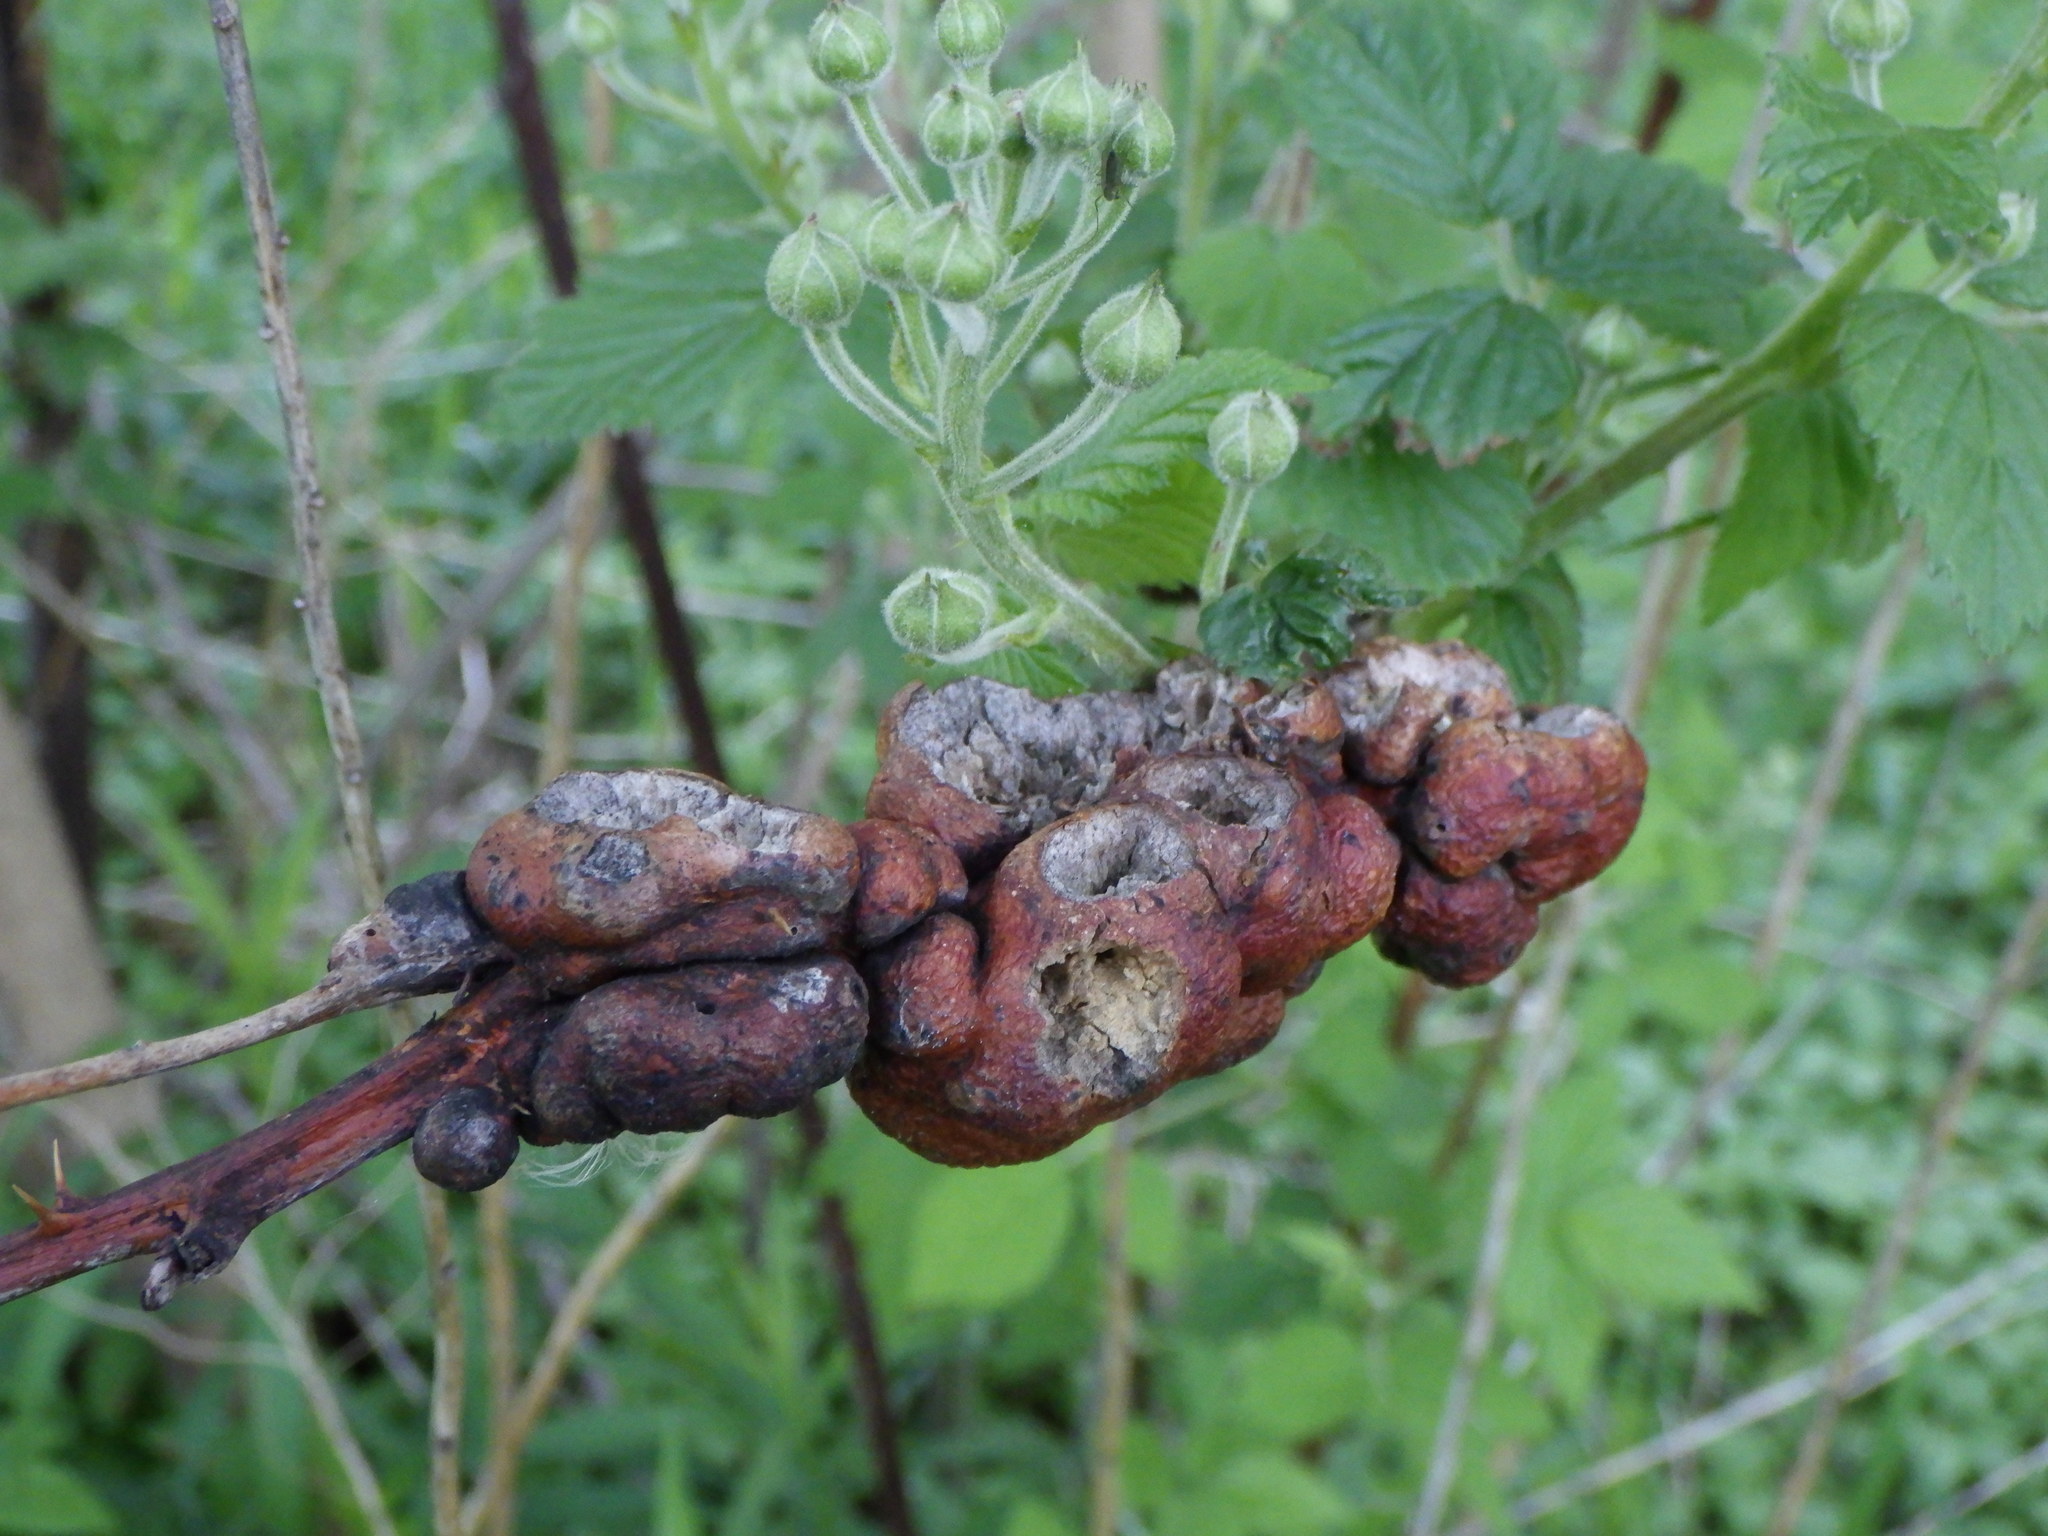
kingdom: Animalia
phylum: Arthropoda
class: Insecta
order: Hymenoptera
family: Cynipidae
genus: Diastrophus
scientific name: Diastrophus
